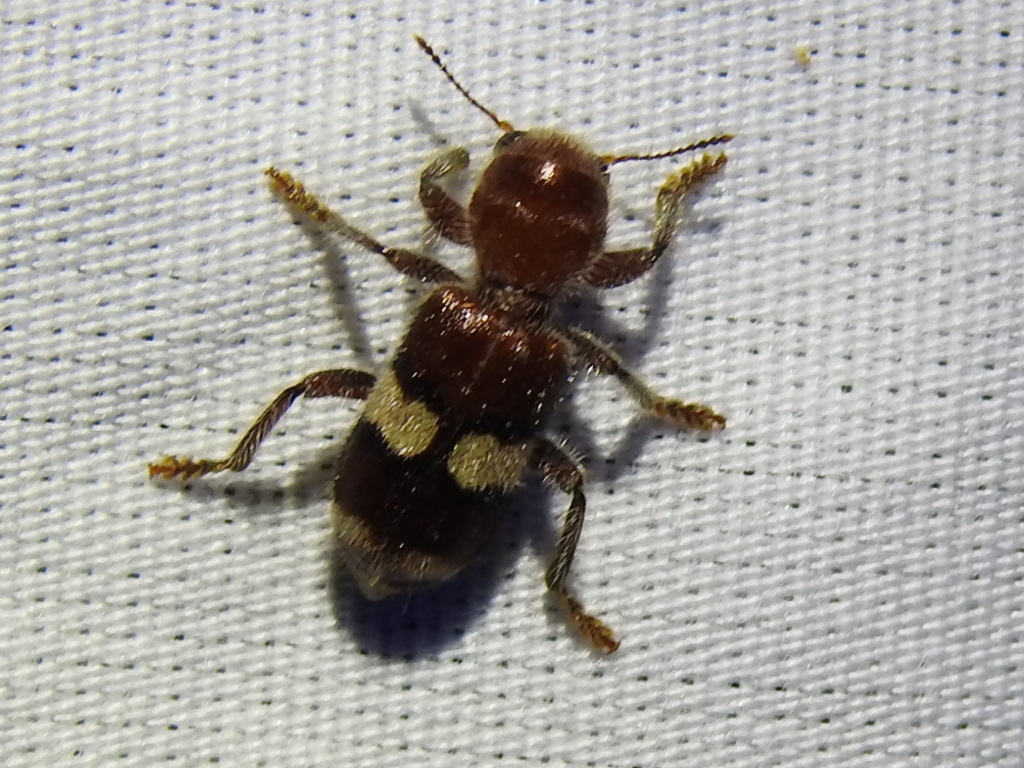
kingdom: Animalia
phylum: Arthropoda
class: Insecta
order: Coleoptera
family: Cleridae
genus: Enoclerus
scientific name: Enoclerus quadrisignatus
